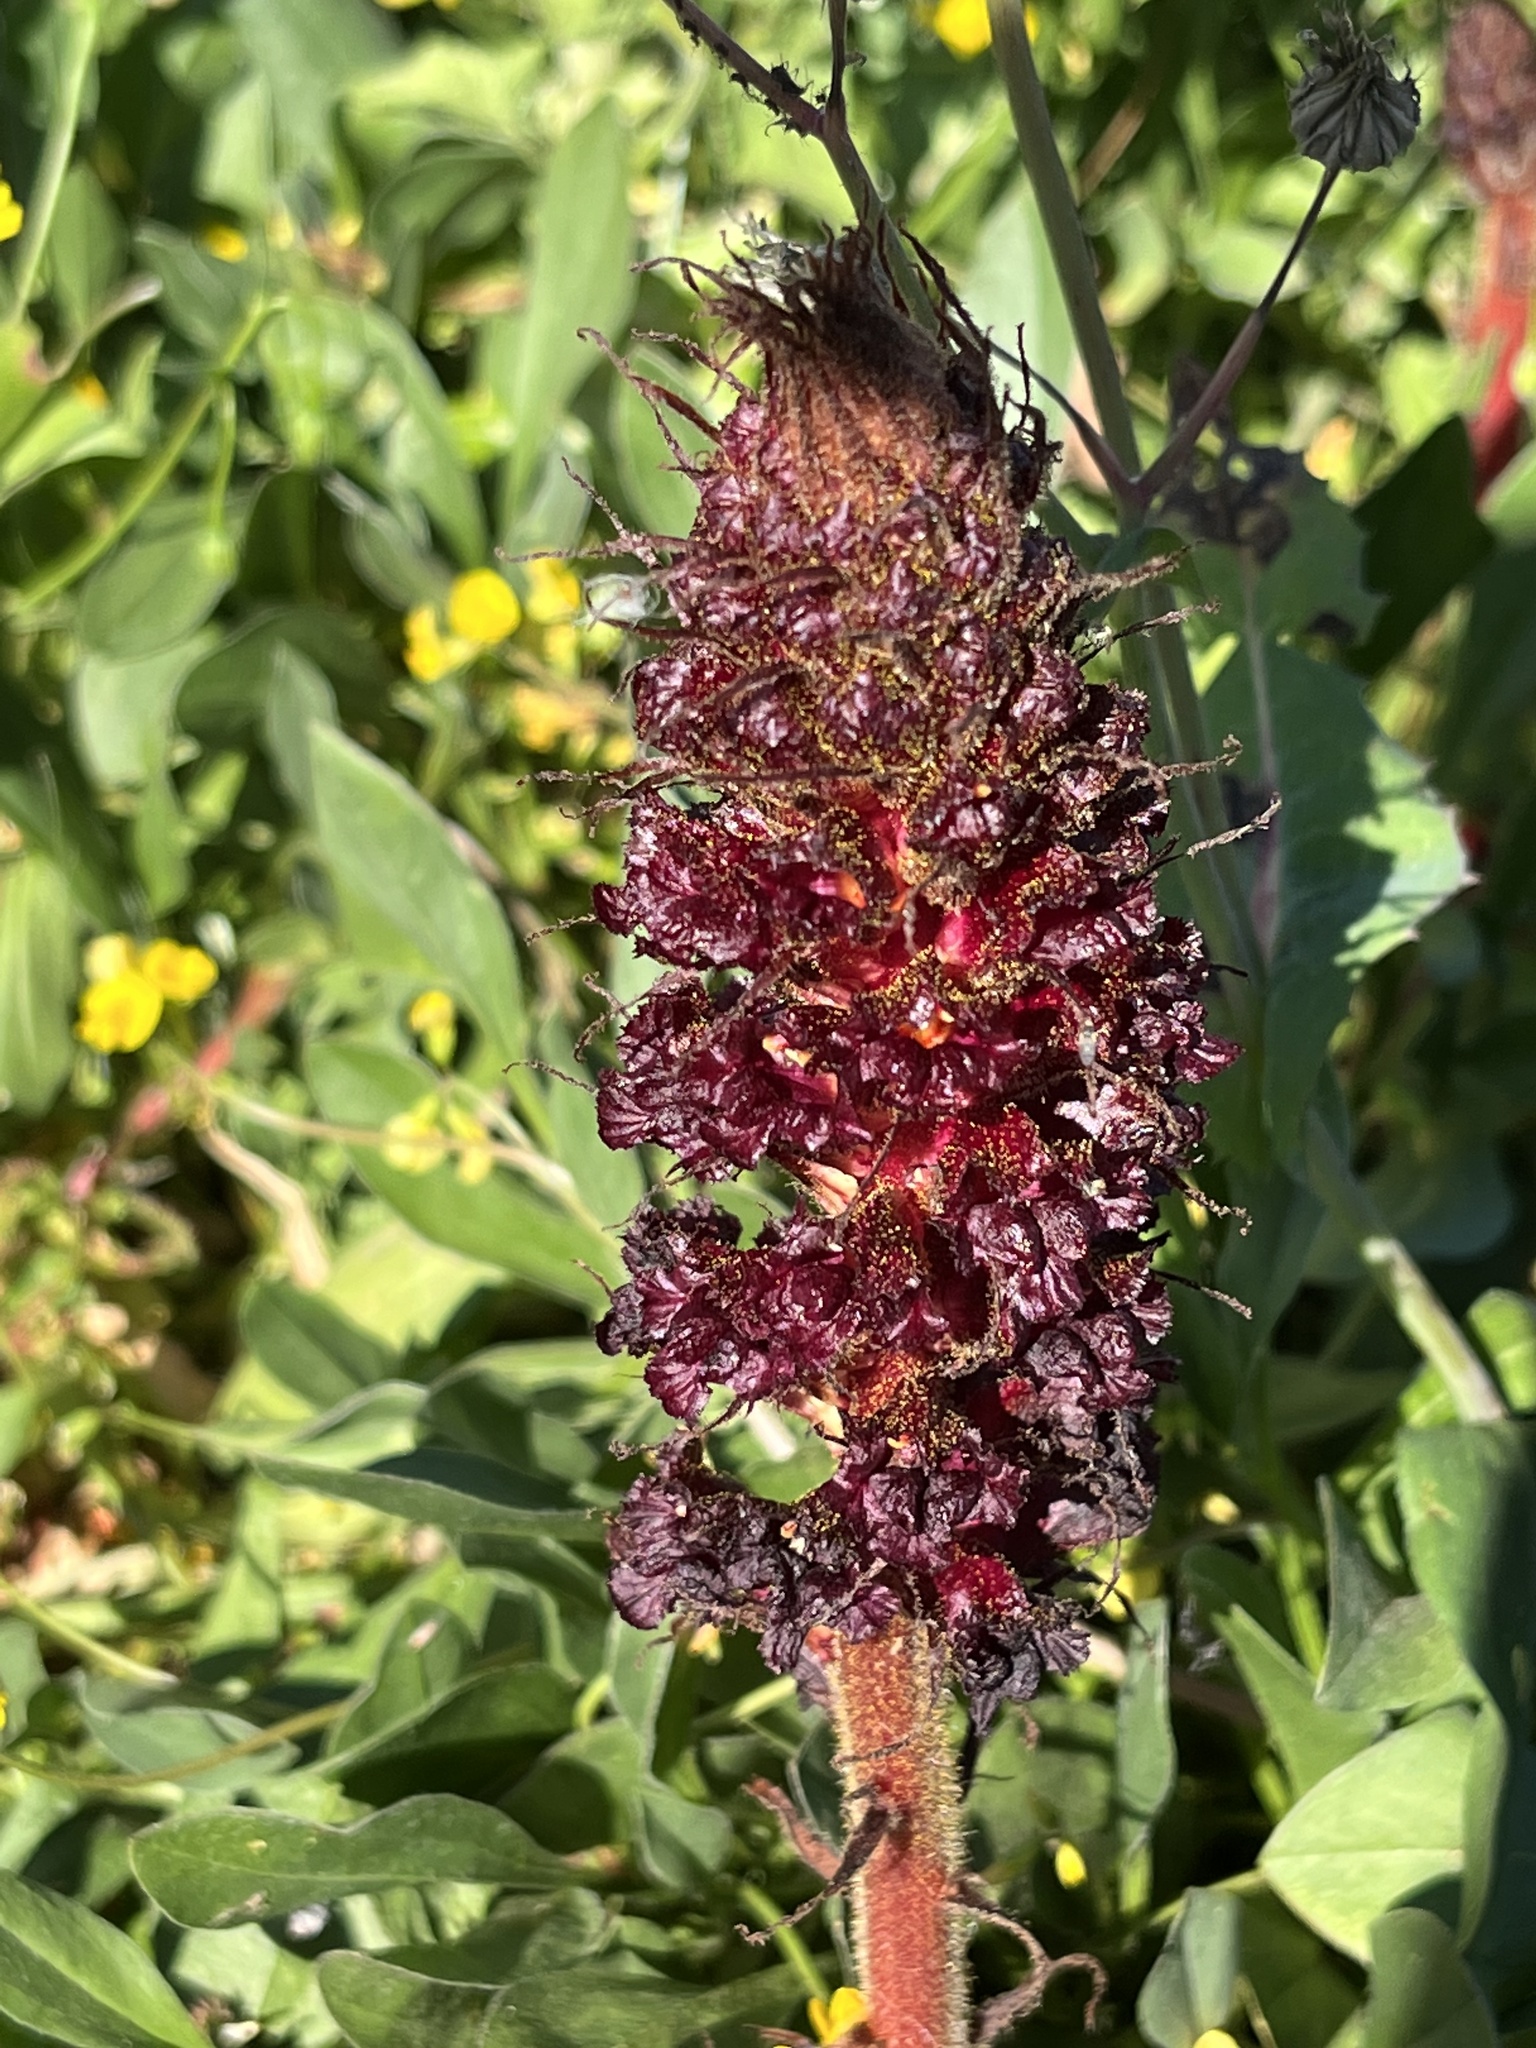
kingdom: Plantae
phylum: Tracheophyta
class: Magnoliopsida
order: Lamiales
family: Orobanchaceae
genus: Orobanche
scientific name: Orobanche foetida
